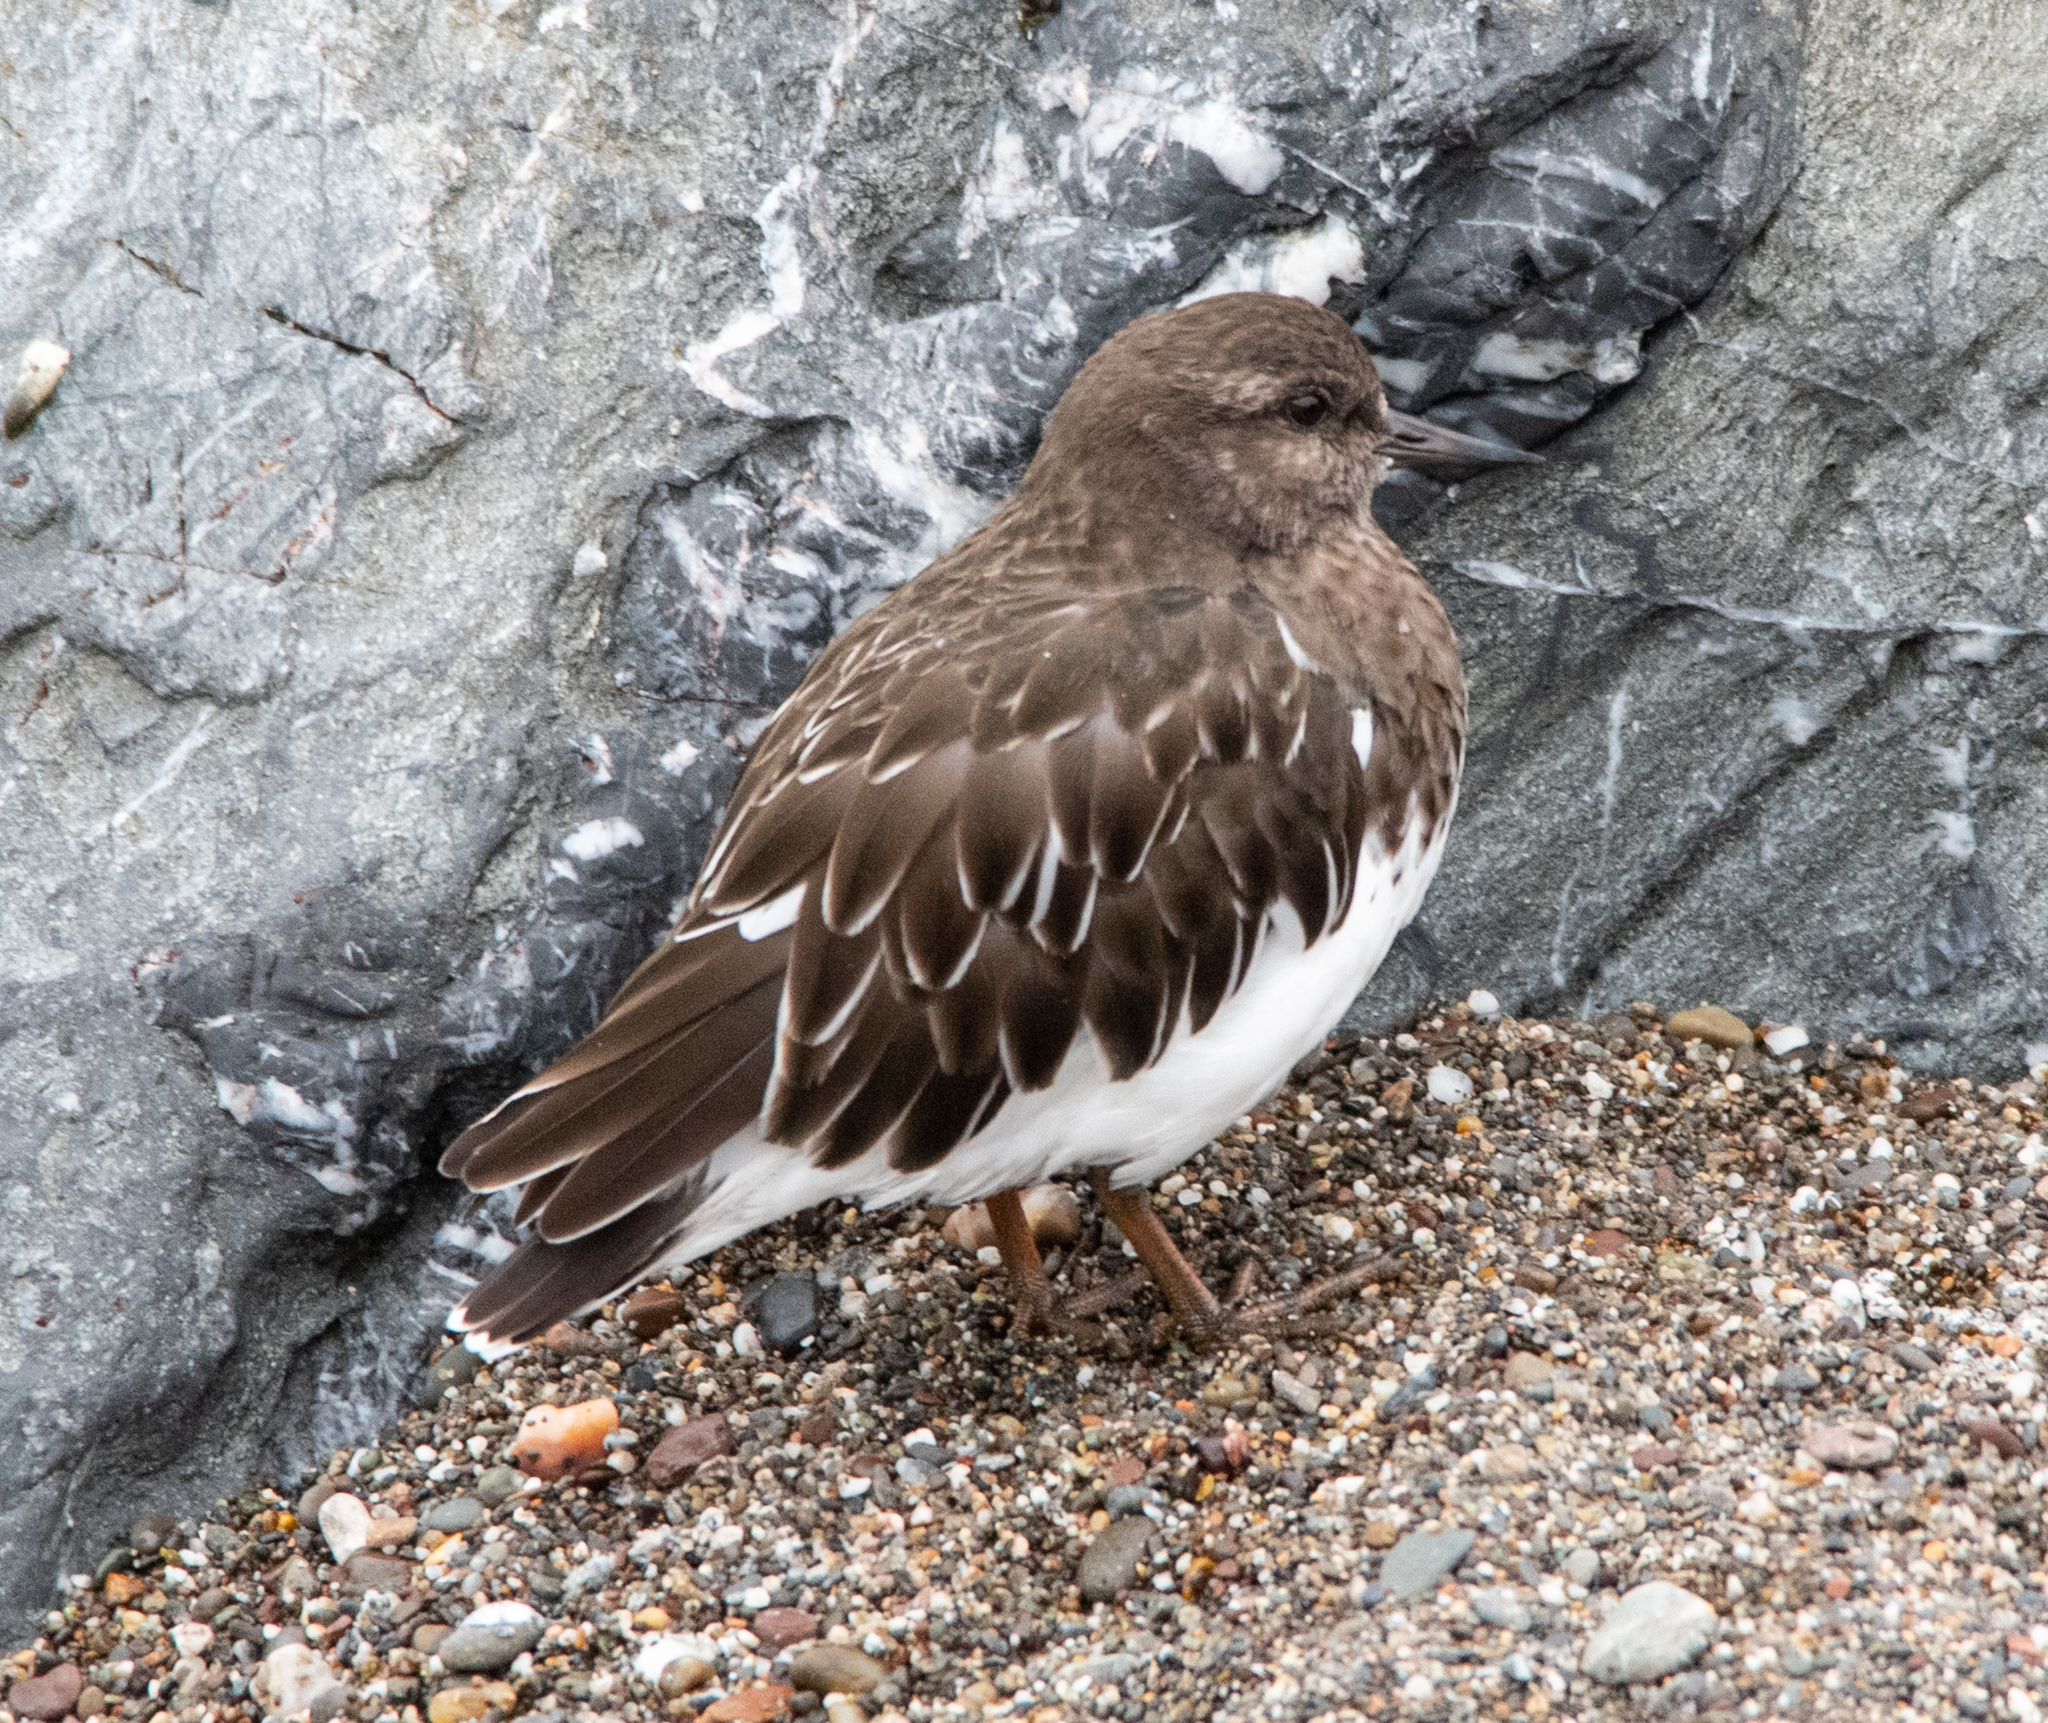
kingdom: Animalia
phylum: Chordata
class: Aves
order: Charadriiformes
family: Scolopacidae
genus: Arenaria
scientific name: Arenaria melanocephala
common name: Black turnstone
